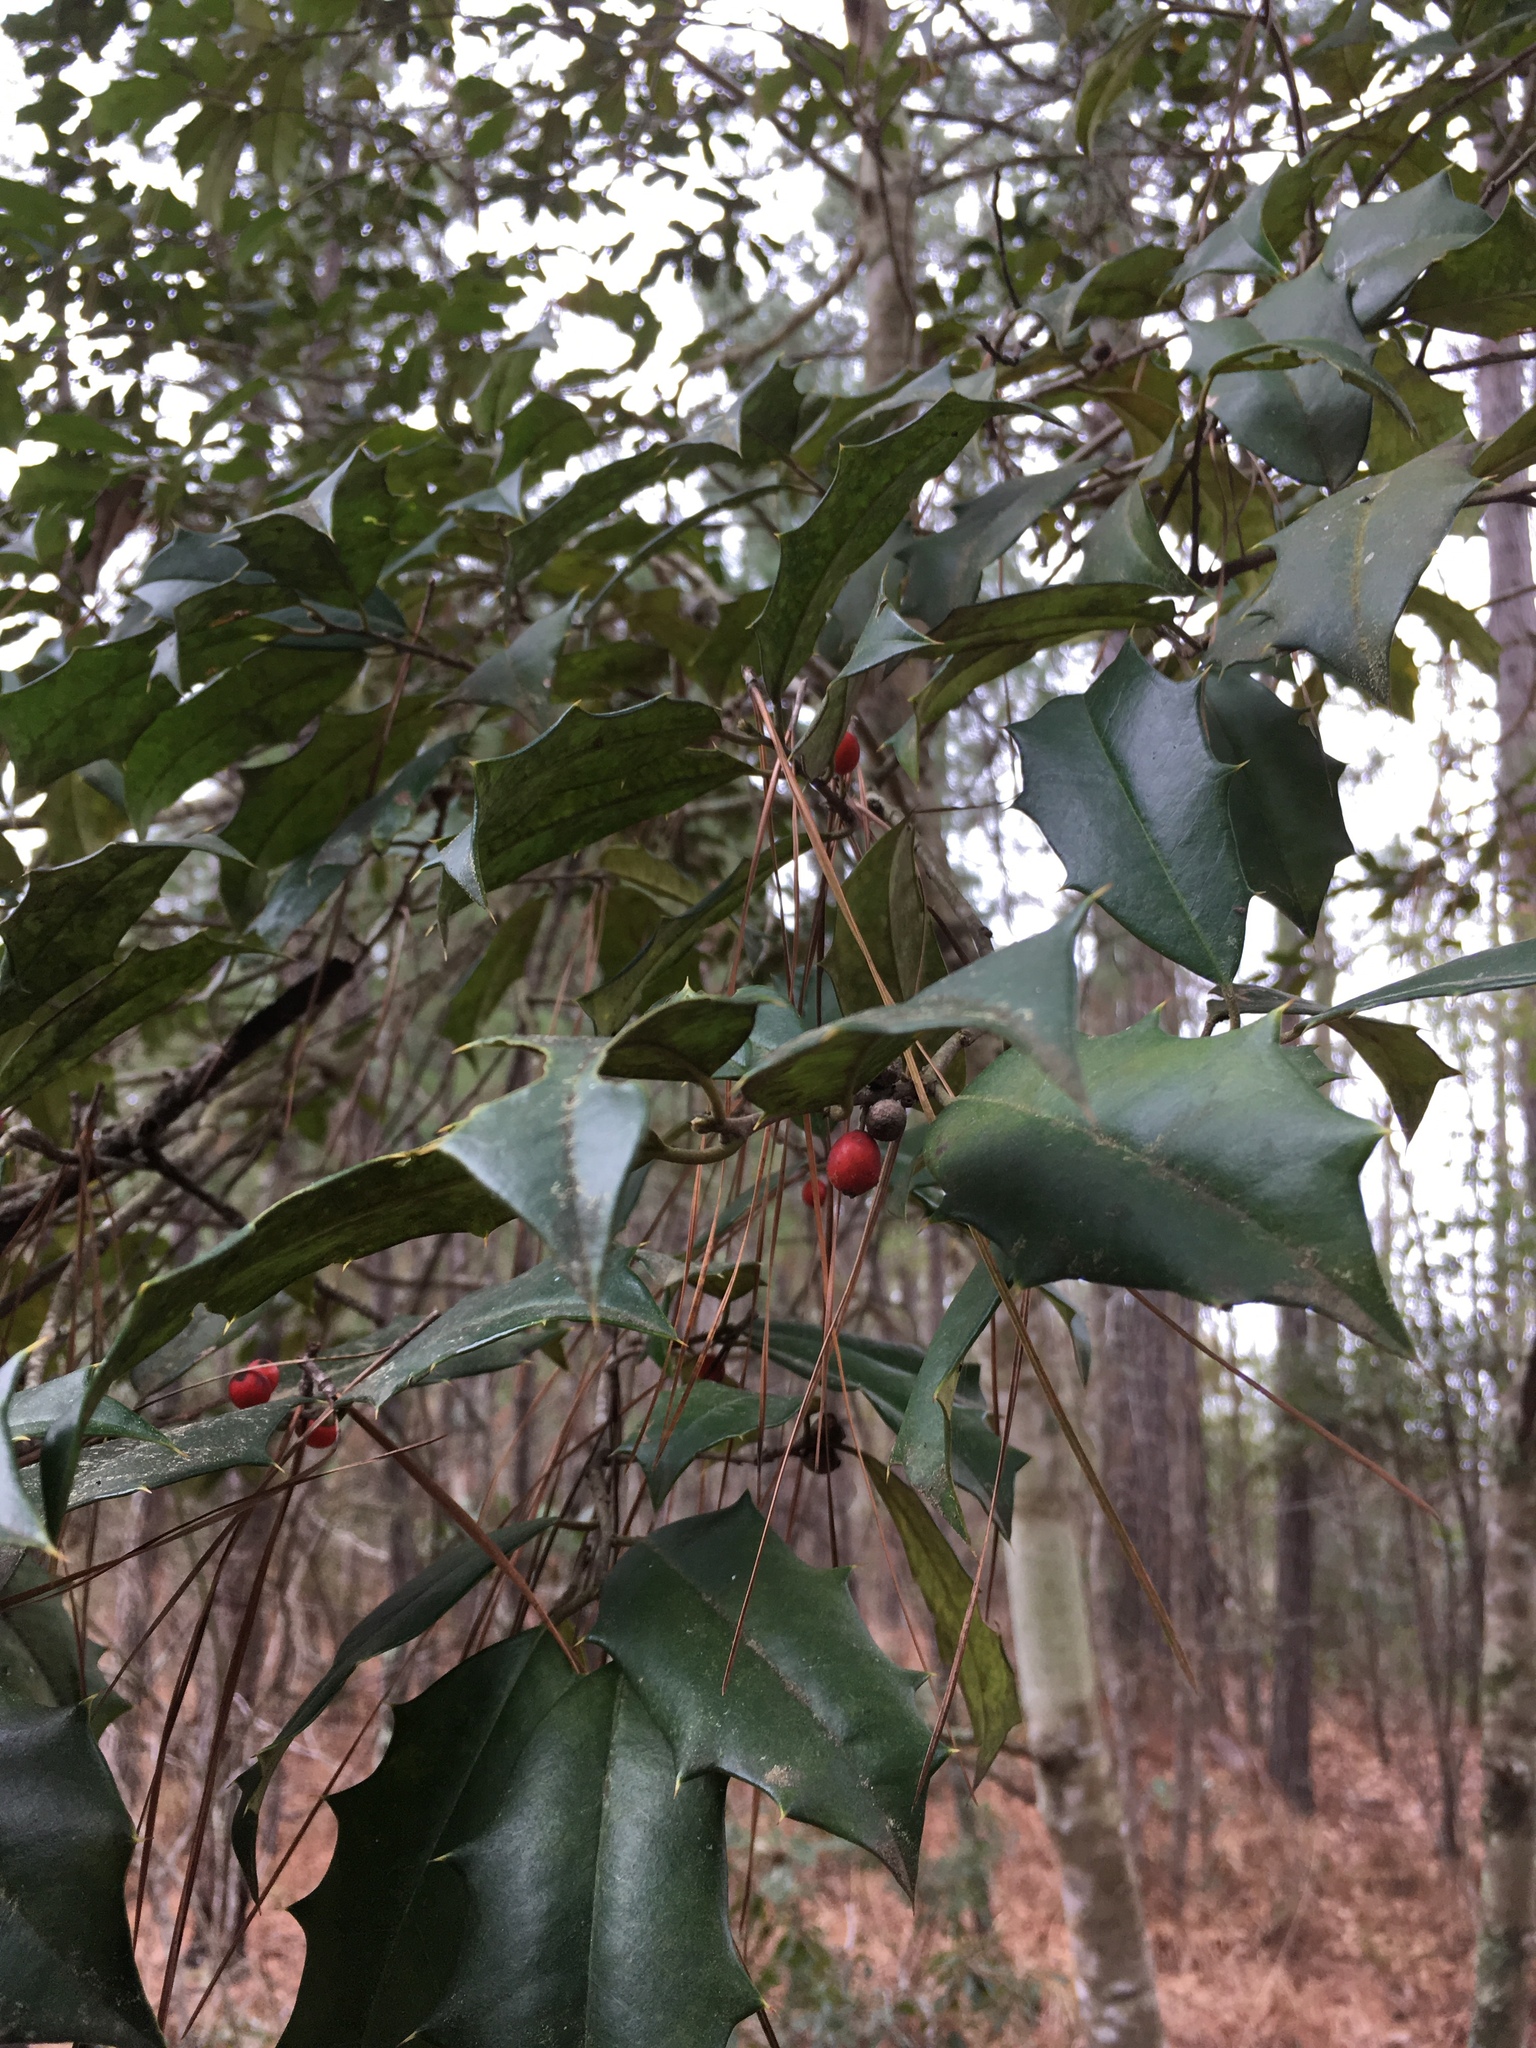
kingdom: Plantae
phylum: Tracheophyta
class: Magnoliopsida
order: Aquifoliales
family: Aquifoliaceae
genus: Ilex
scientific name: Ilex opaca
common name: American holly
